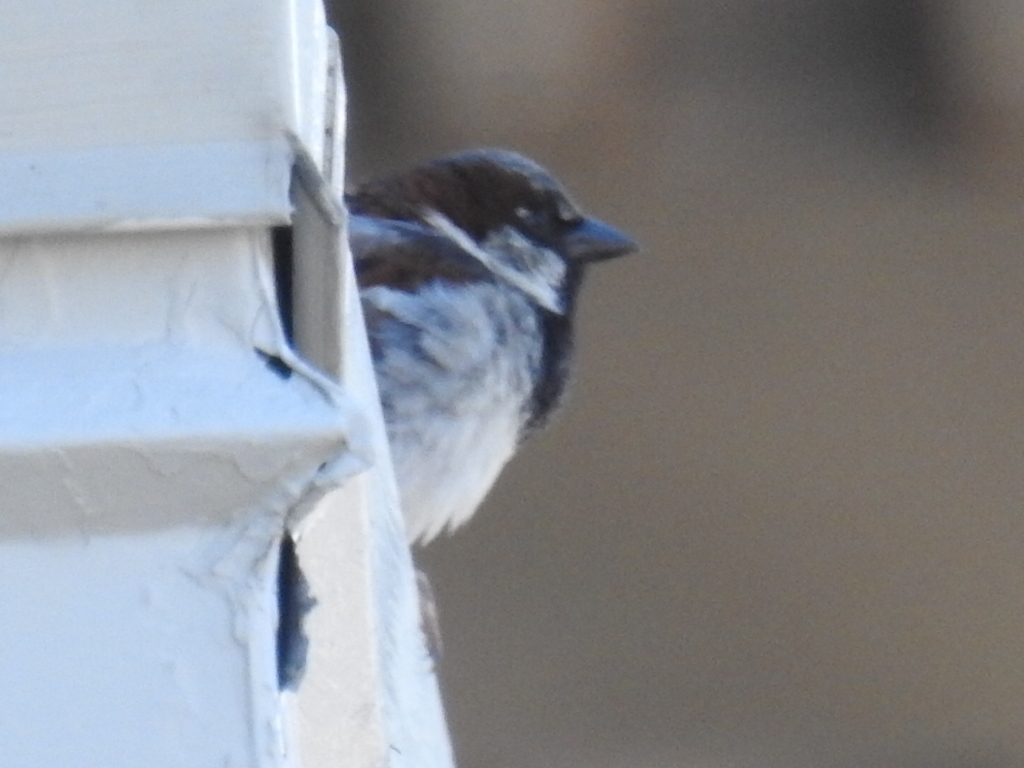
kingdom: Animalia
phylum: Chordata
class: Aves
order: Passeriformes
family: Passeridae
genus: Passer
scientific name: Passer domesticus
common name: House sparrow
